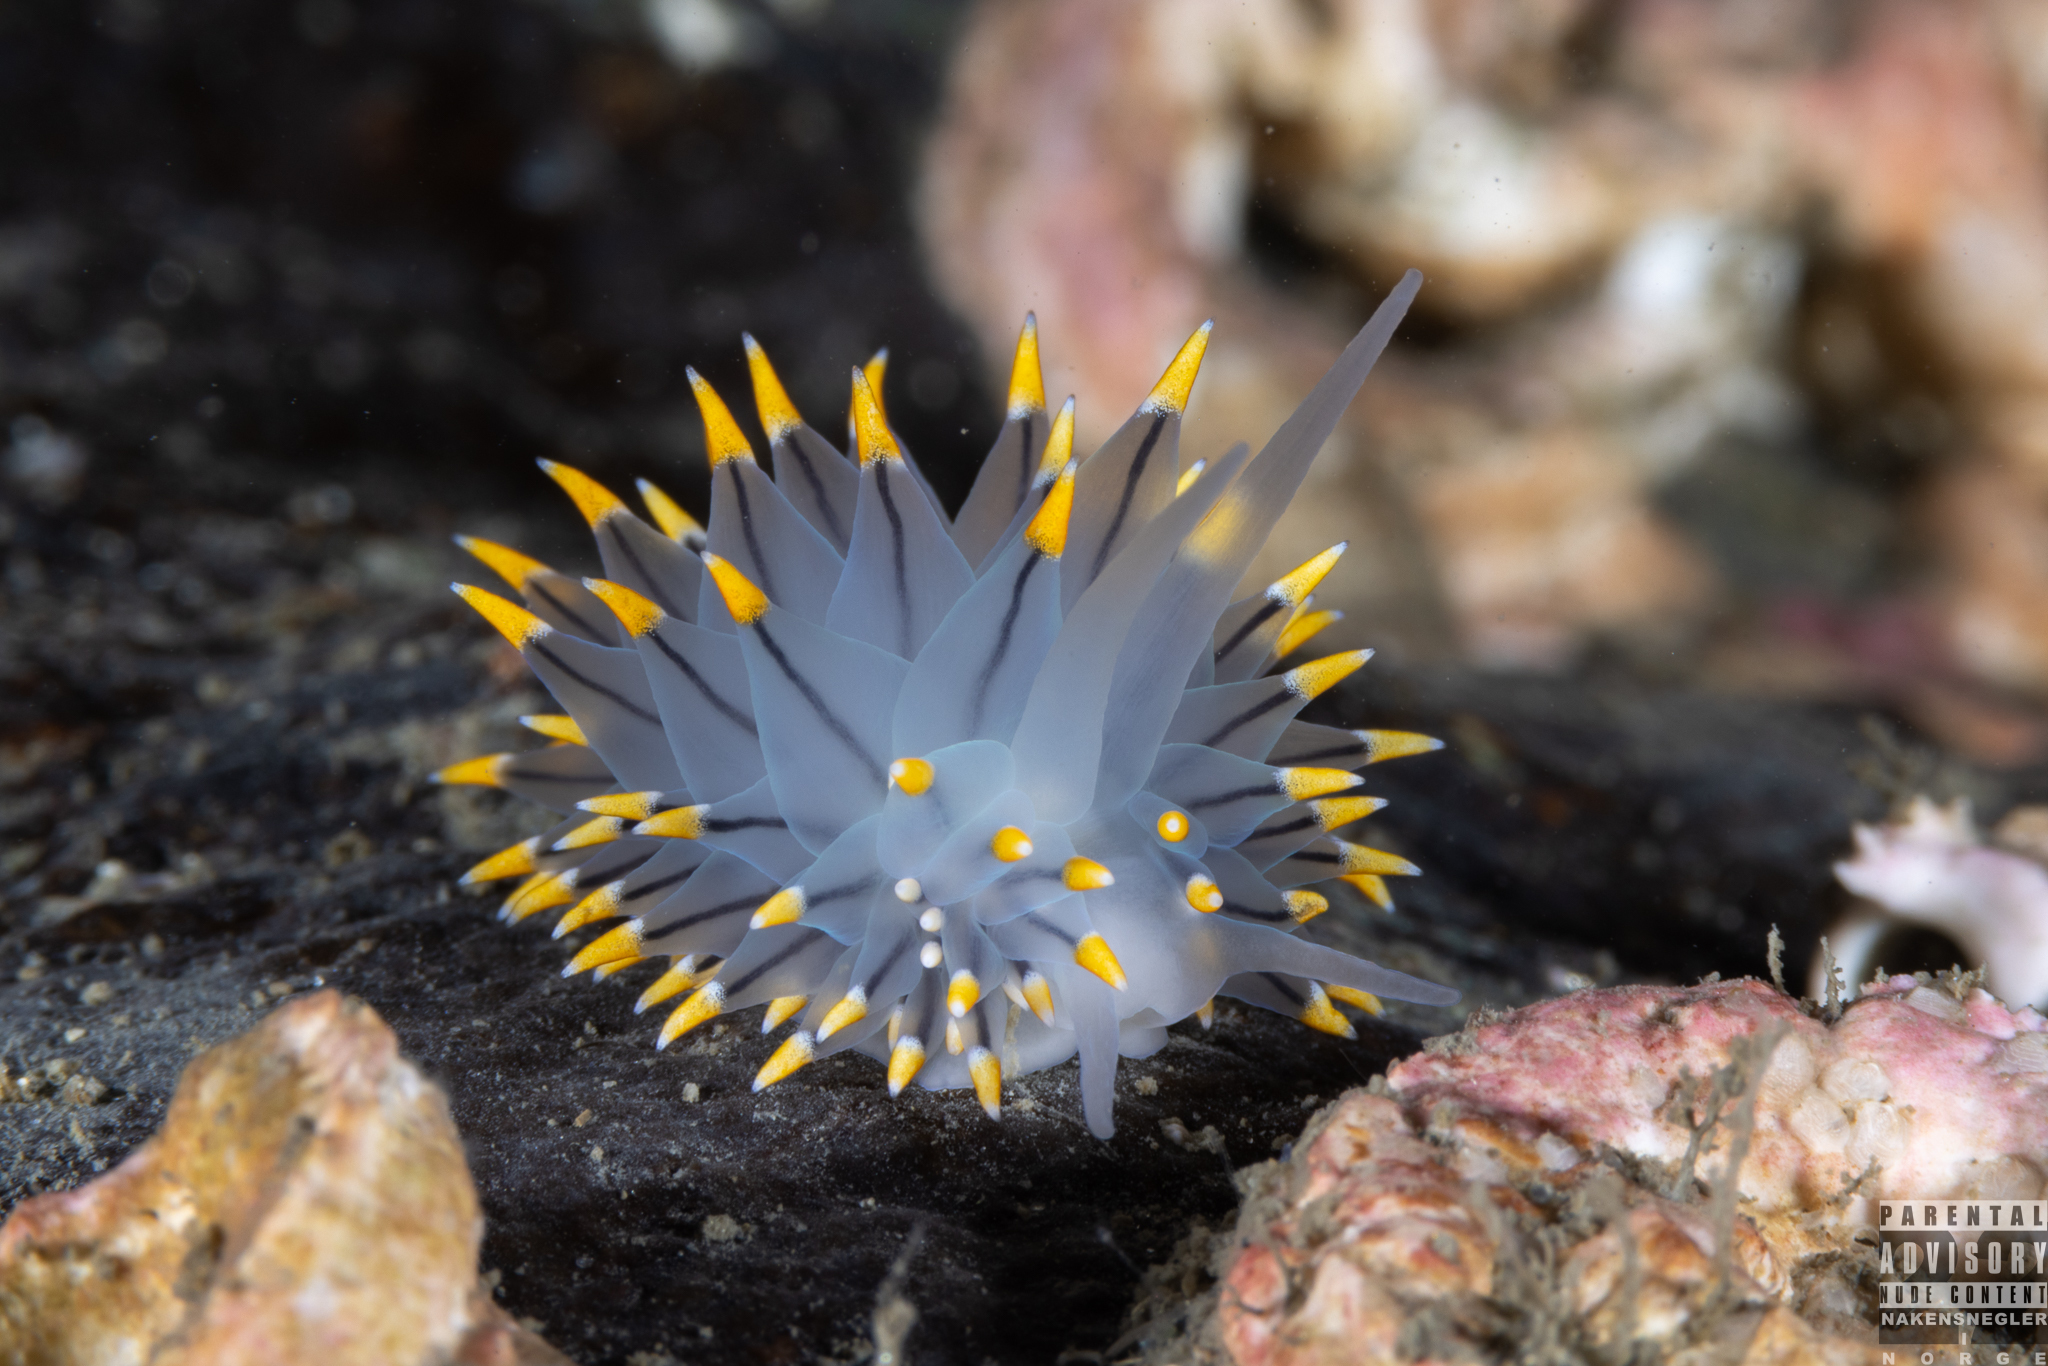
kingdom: Animalia
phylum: Mollusca
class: Gastropoda
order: Nudibranchia
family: Eubranchidae
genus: Eubranchus
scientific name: Eubranchus tricolor
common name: Painted balloon aeolis
